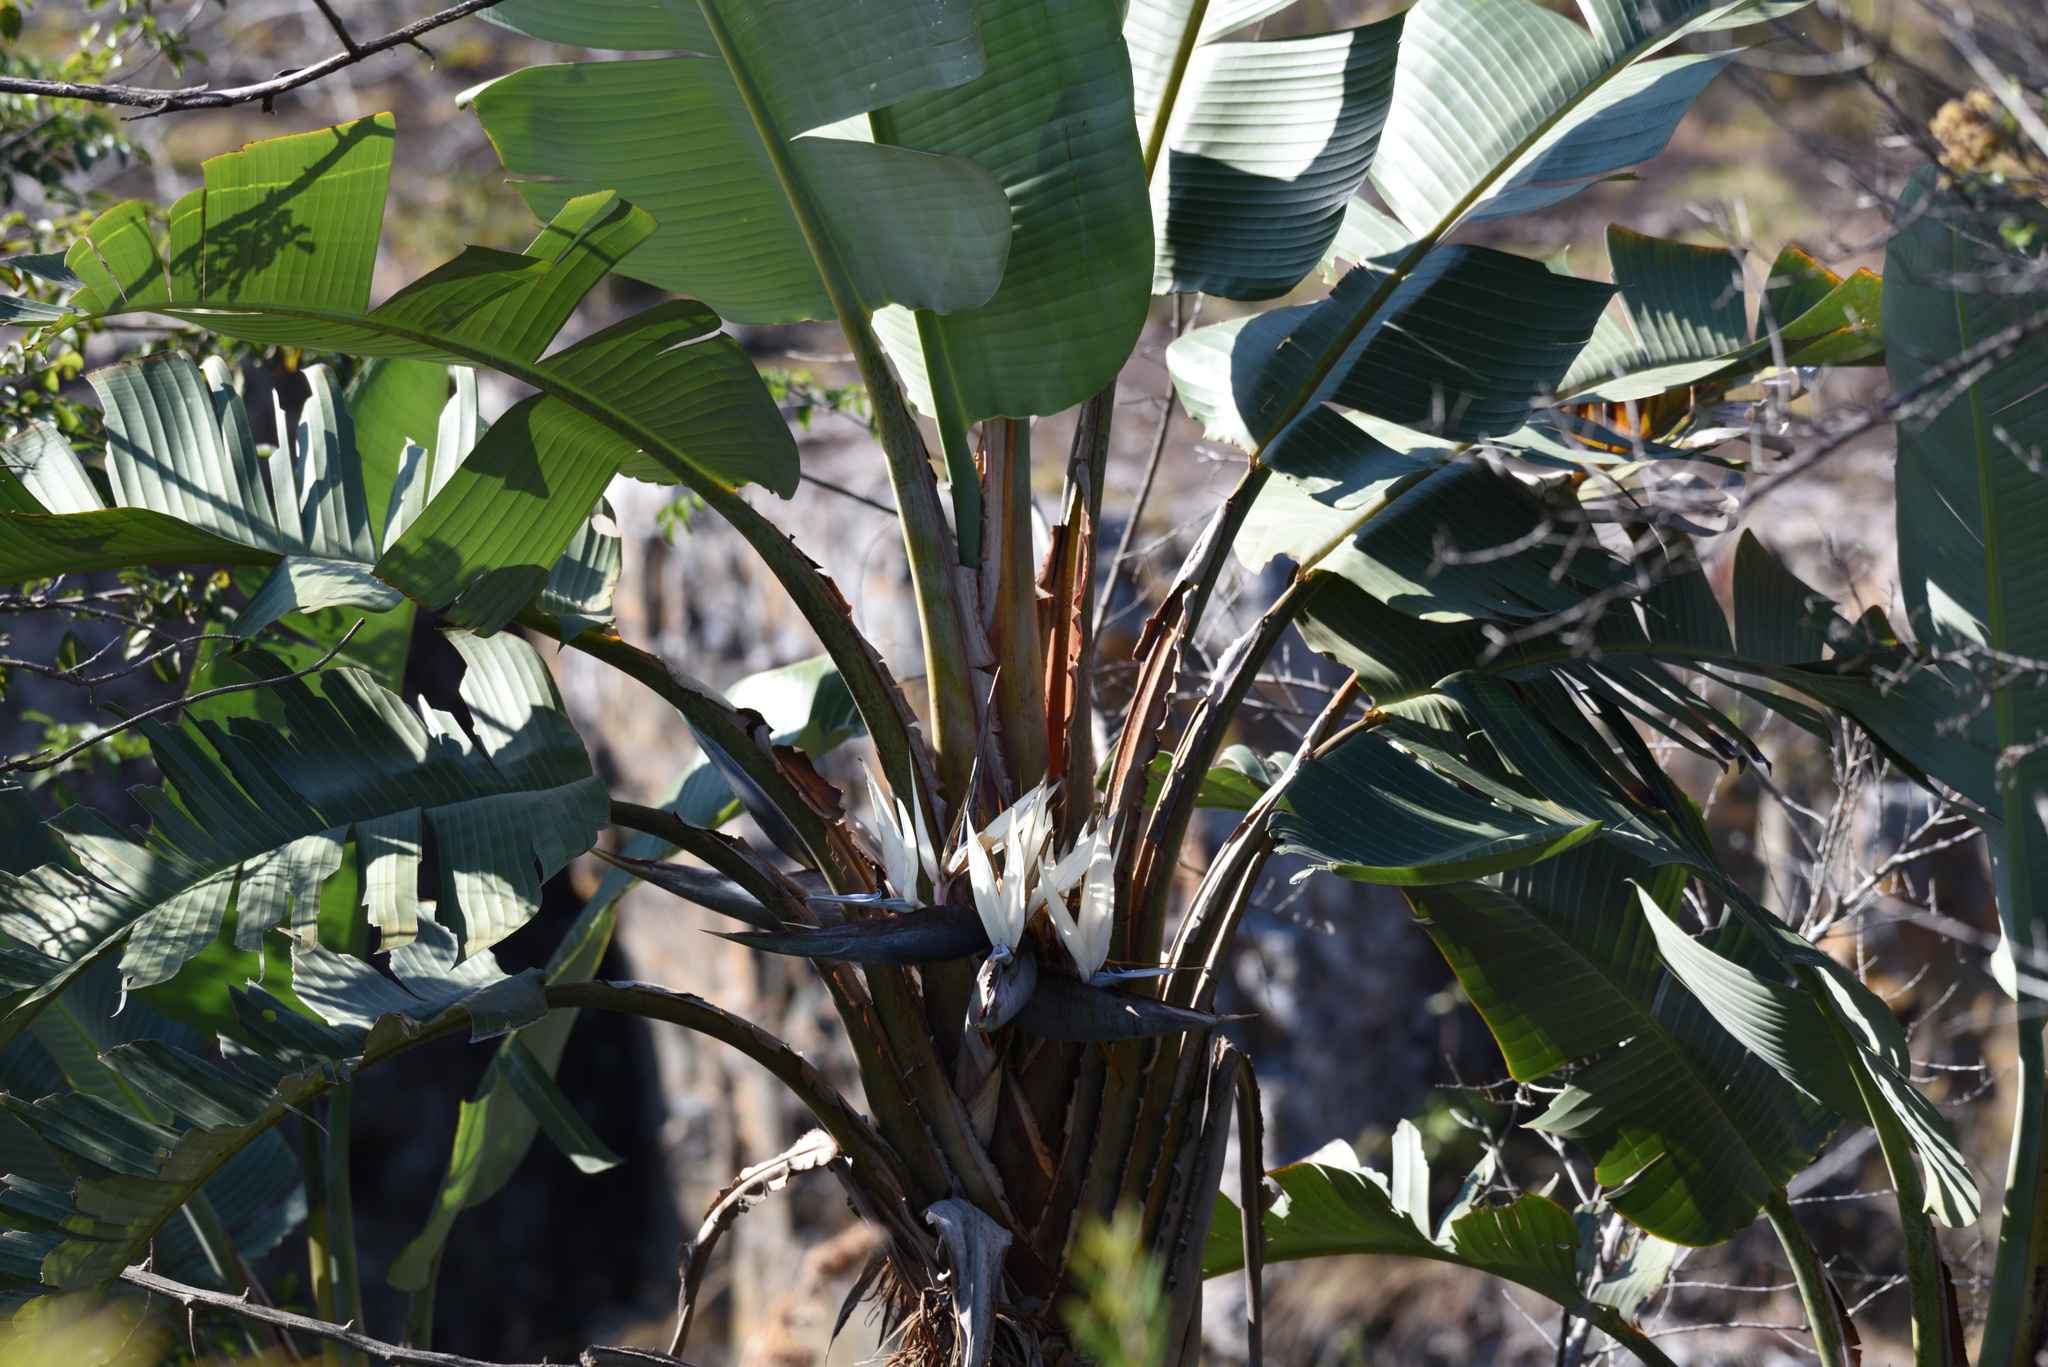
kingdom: Plantae
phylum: Tracheophyta
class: Liliopsida
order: Zingiberales
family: Strelitziaceae
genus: Strelitzia
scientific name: Strelitzia nicolai
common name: Bird-of-paradise tree
